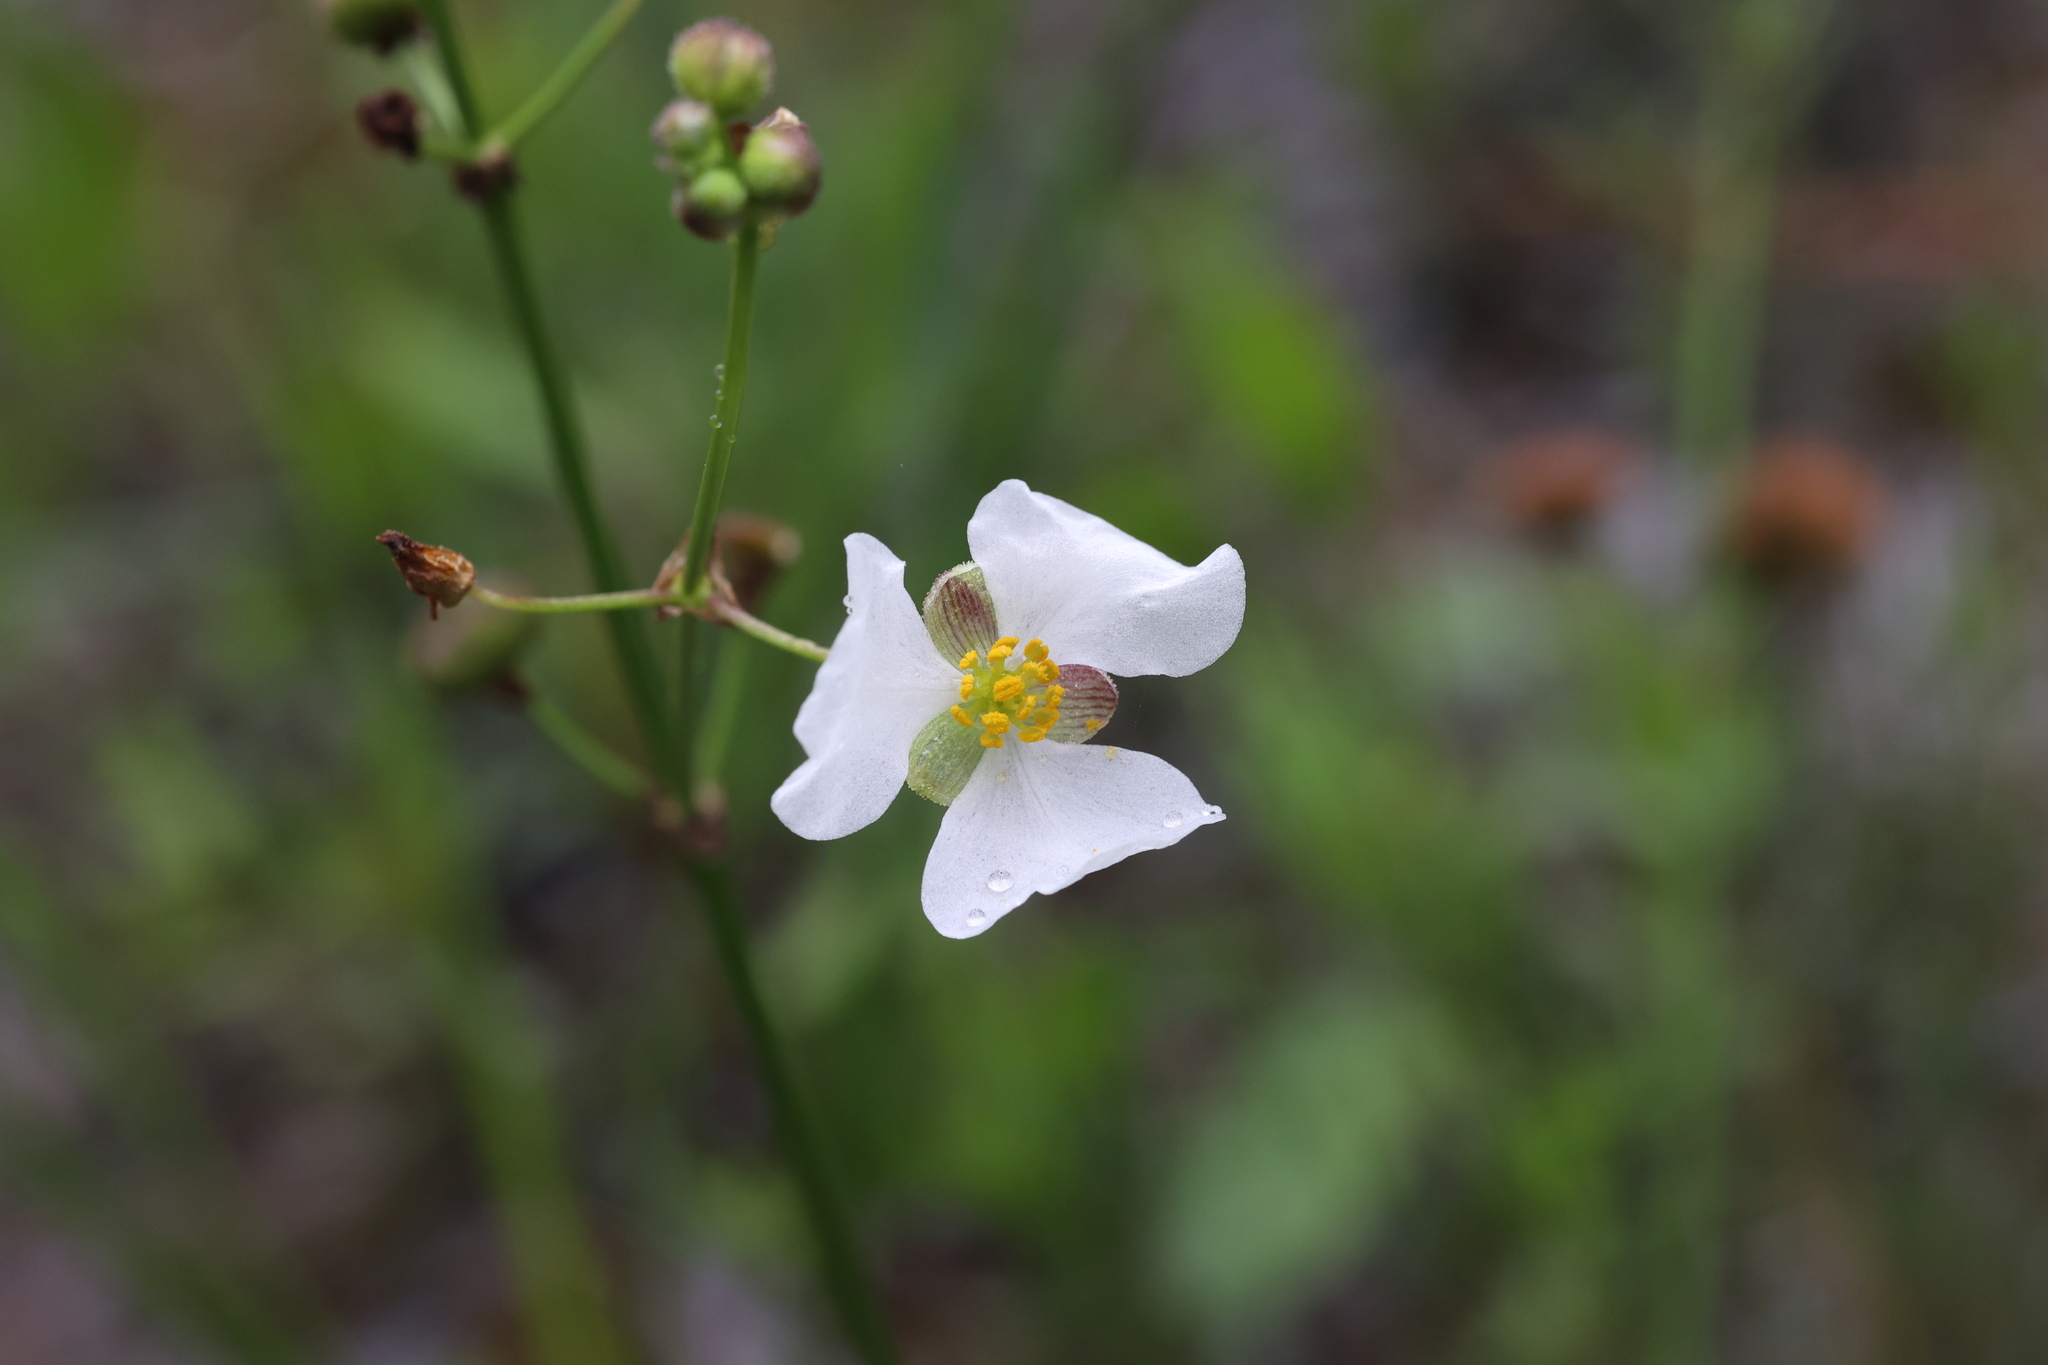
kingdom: Plantae
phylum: Tracheophyta
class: Liliopsida
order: Alismatales
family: Alismataceae
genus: Sagittaria
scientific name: Sagittaria papillosa
